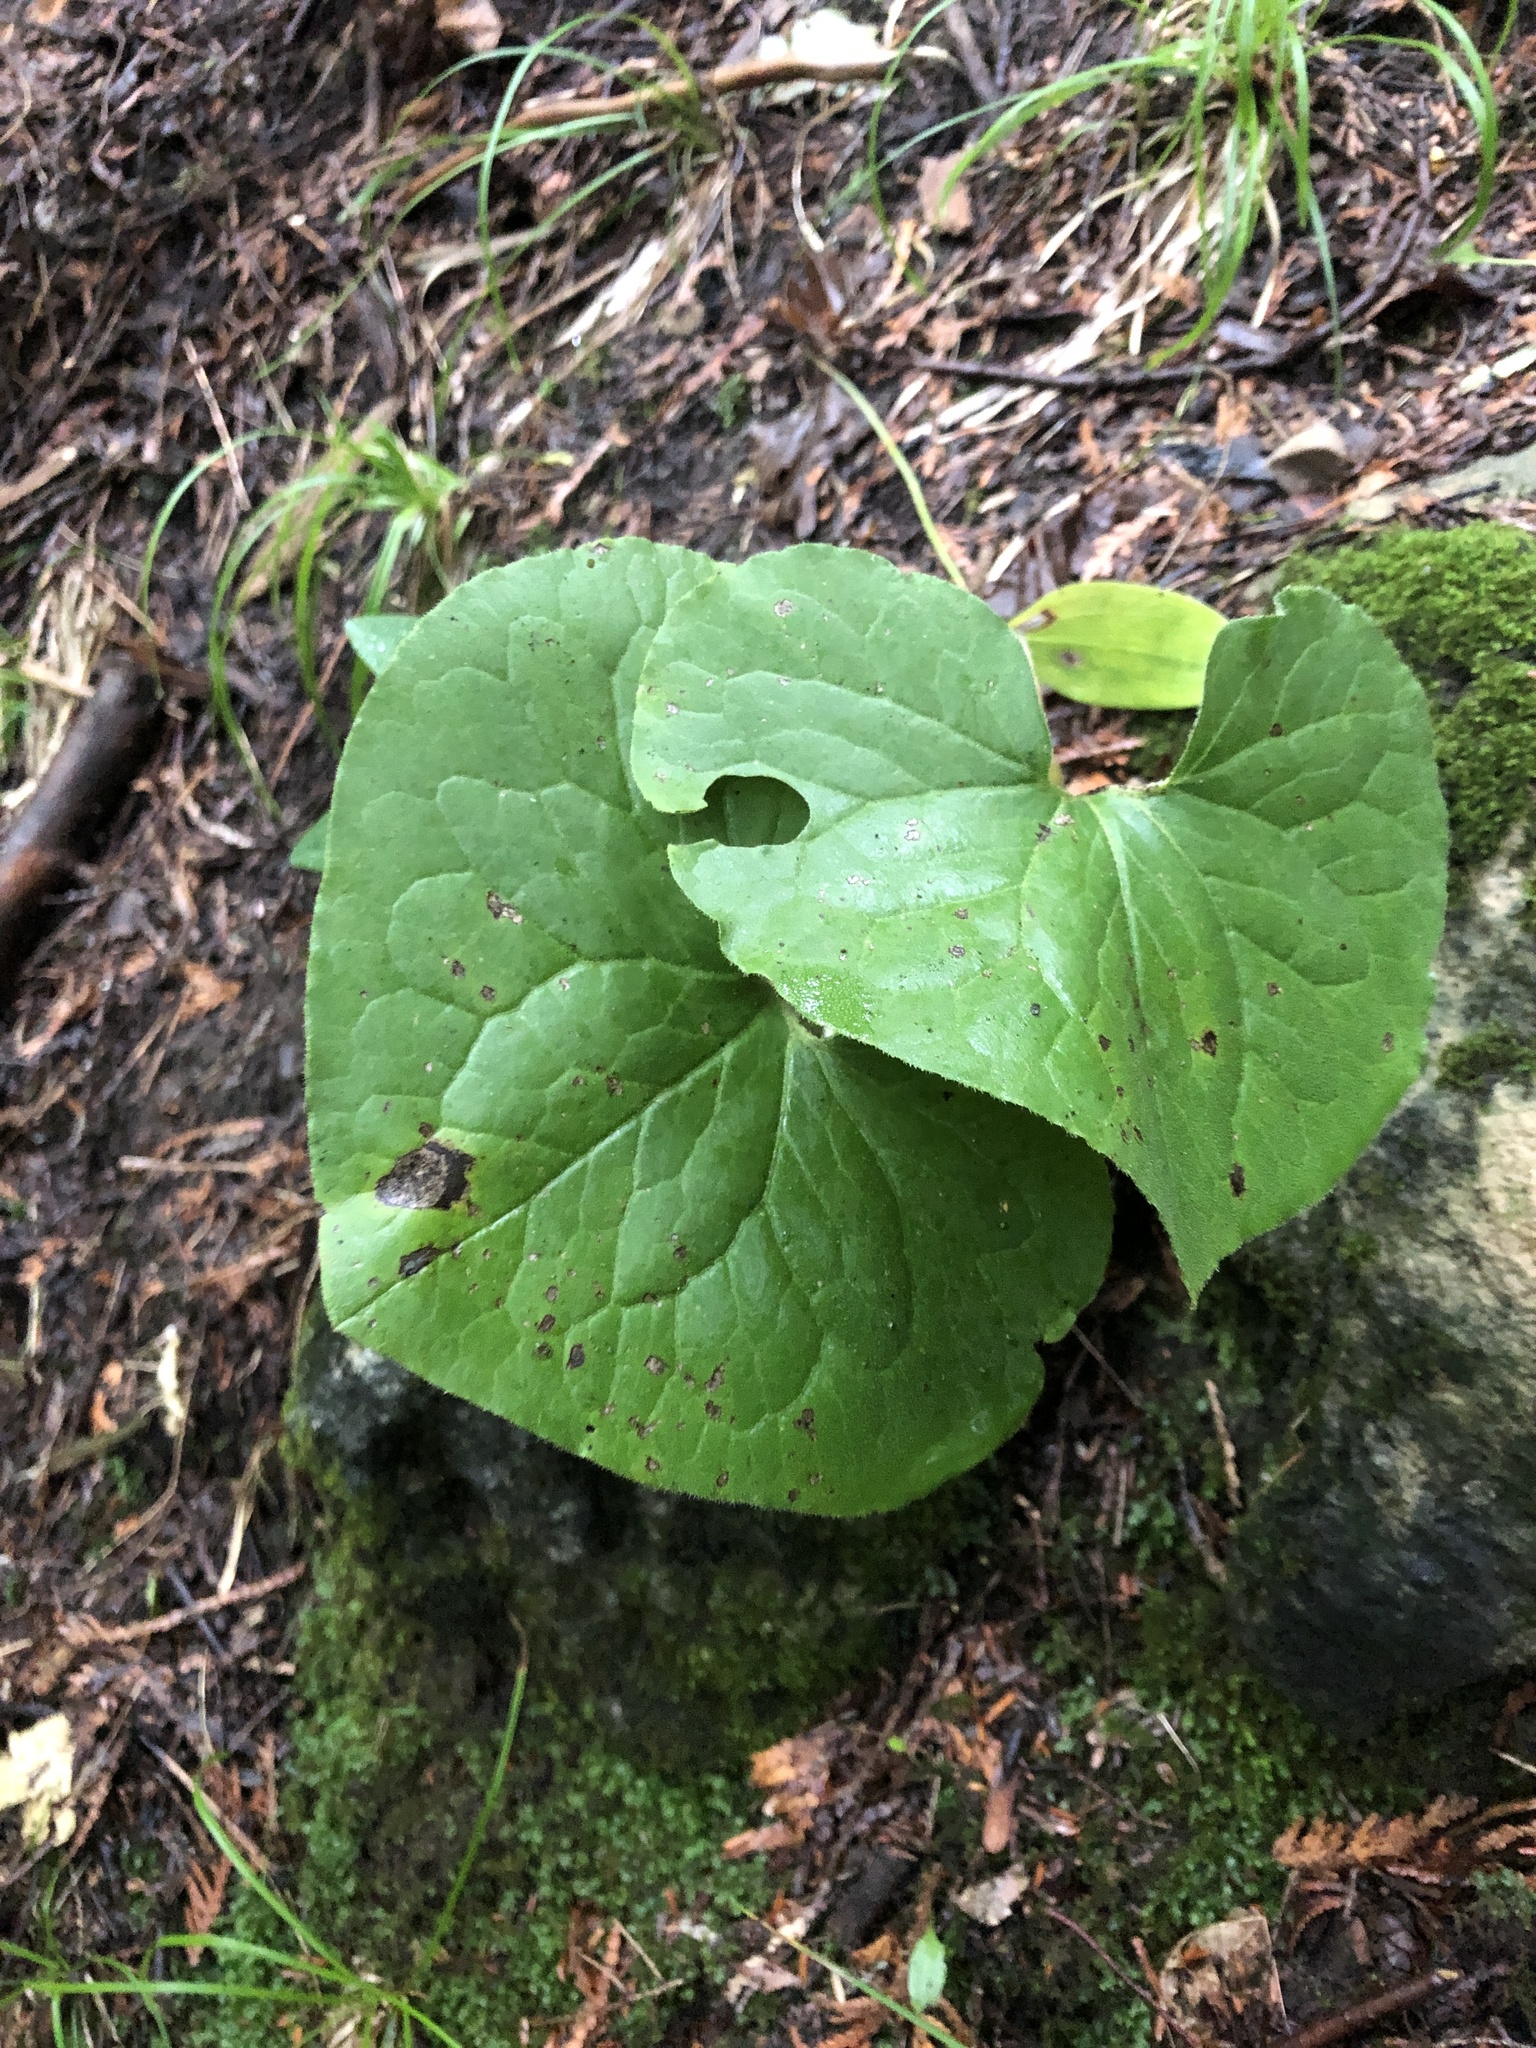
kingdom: Plantae
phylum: Tracheophyta
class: Magnoliopsida
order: Piperales
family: Aristolochiaceae
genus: Asarum
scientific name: Asarum canadense
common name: Wild ginger
